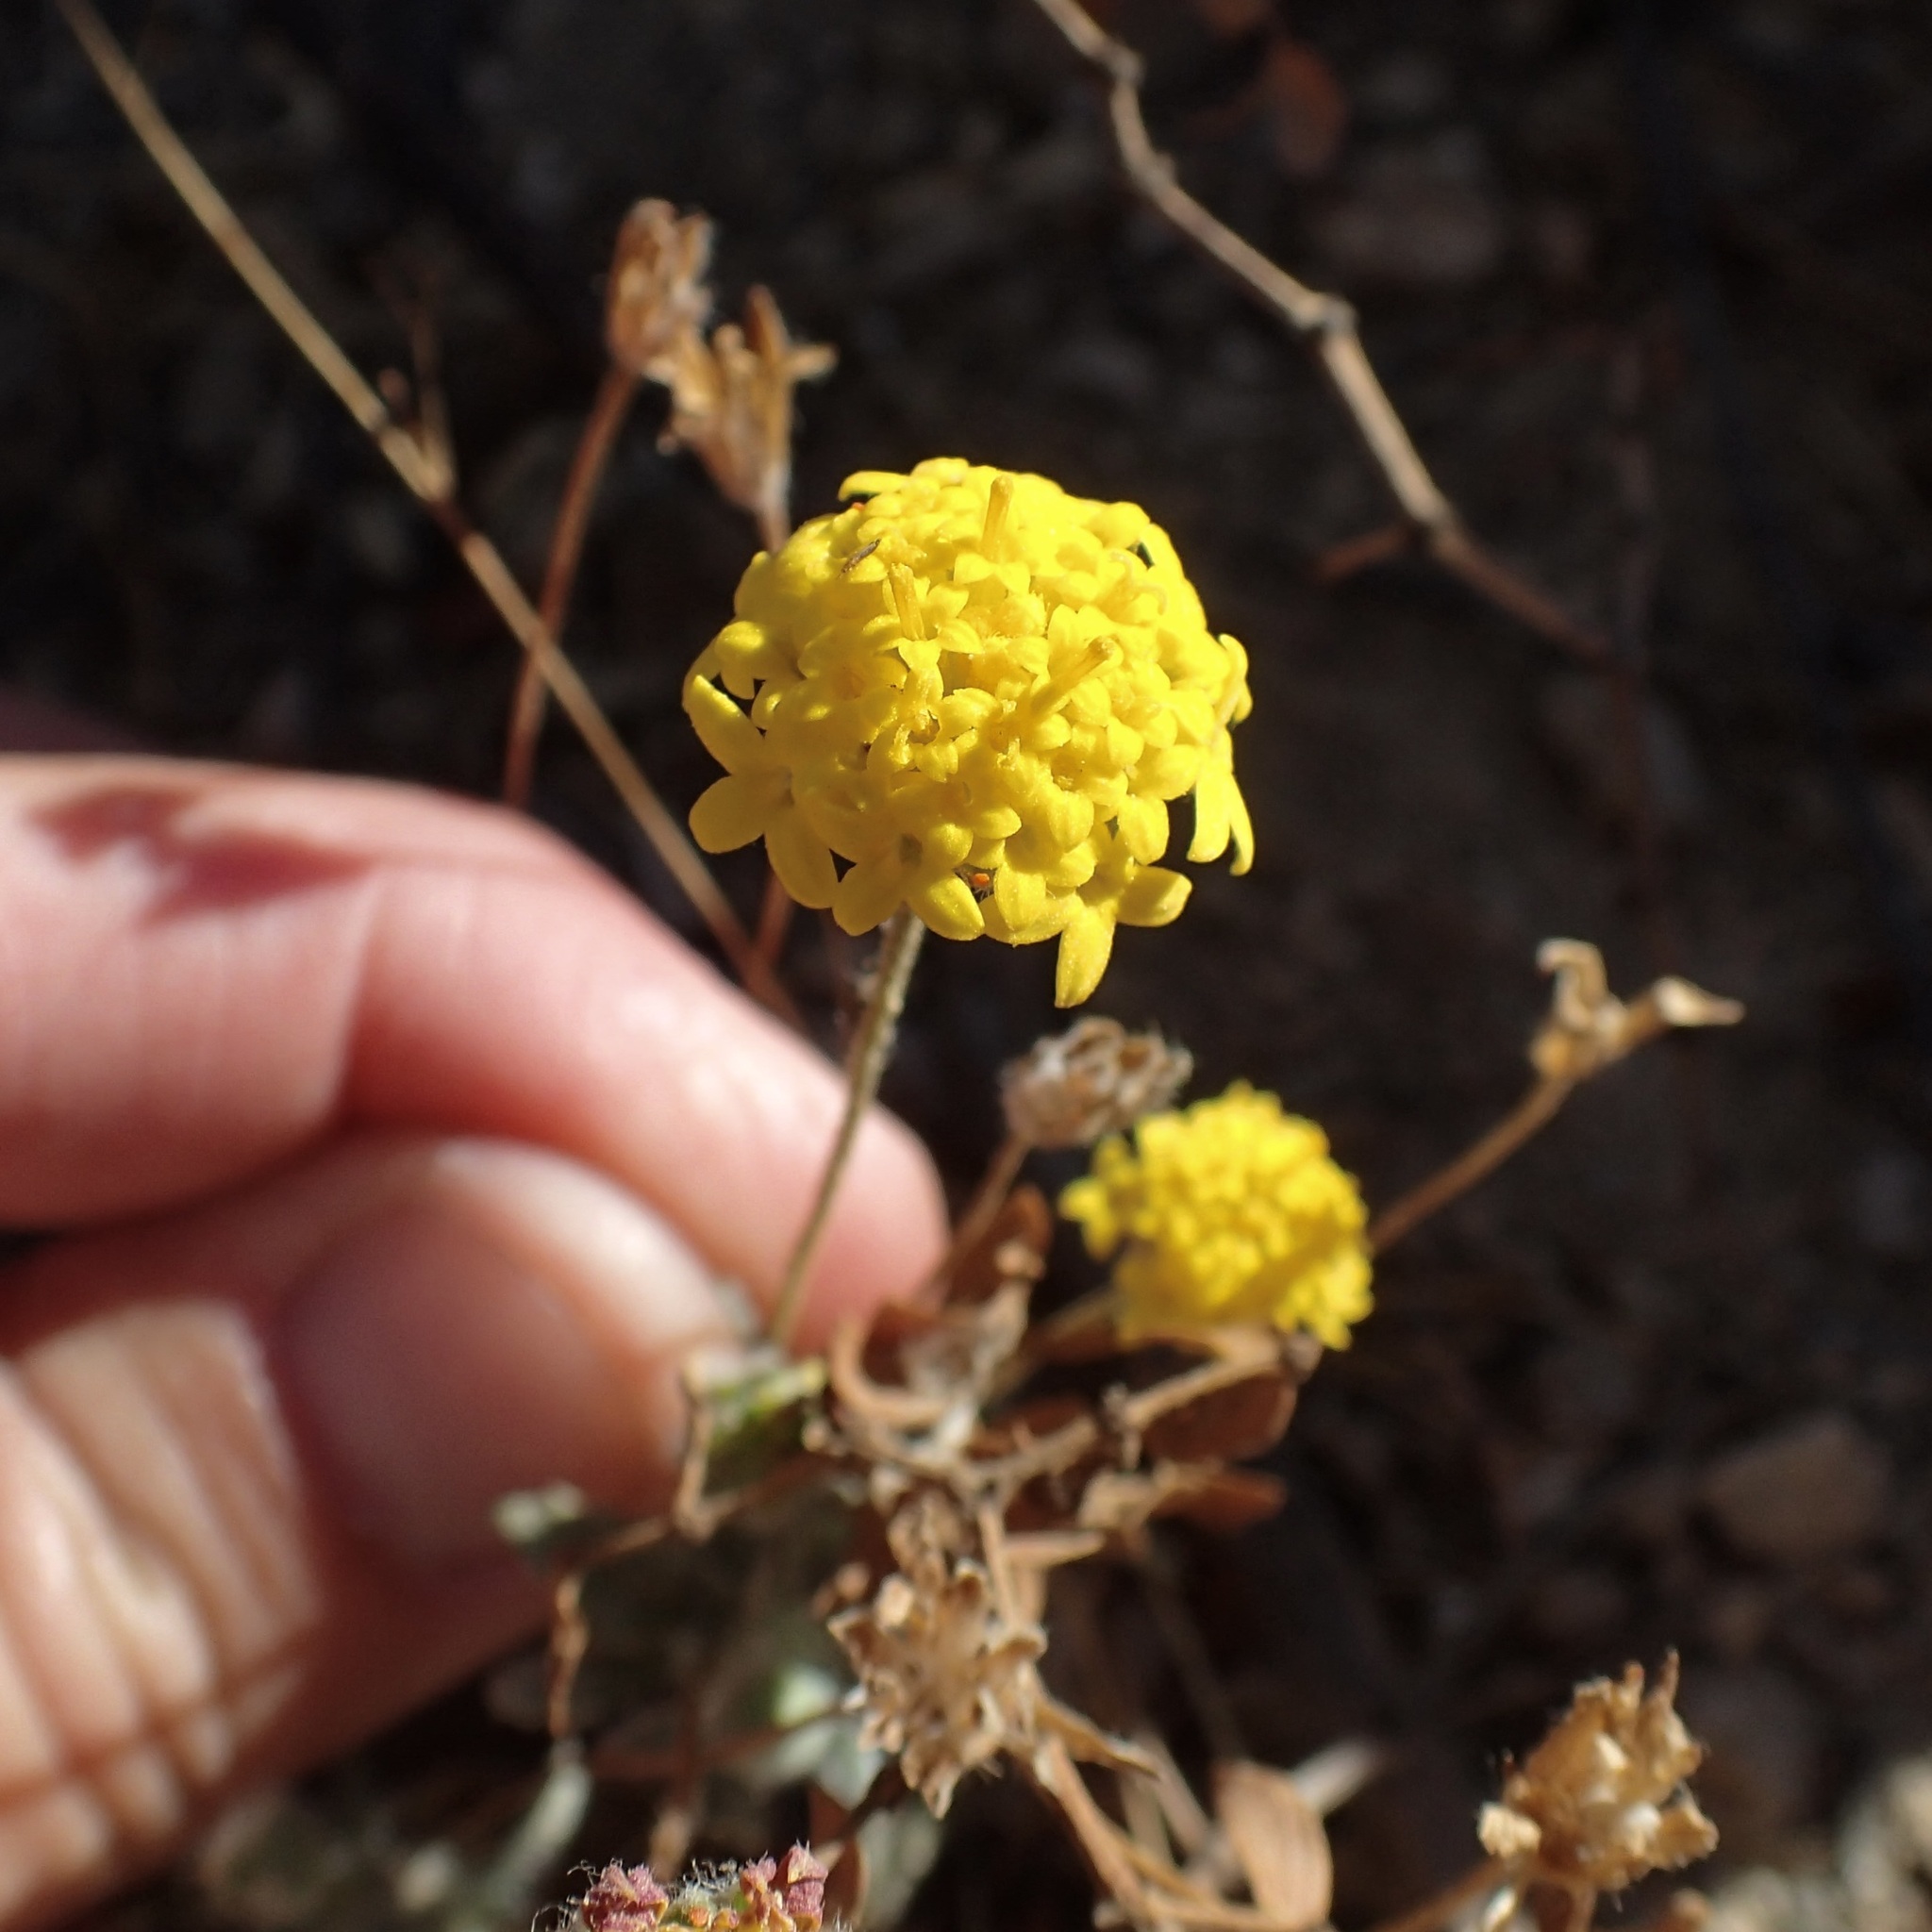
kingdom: Plantae
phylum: Tracheophyta
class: Magnoliopsida
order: Asterales
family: Asteraceae
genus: Trichoptilium
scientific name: Trichoptilium incisum
